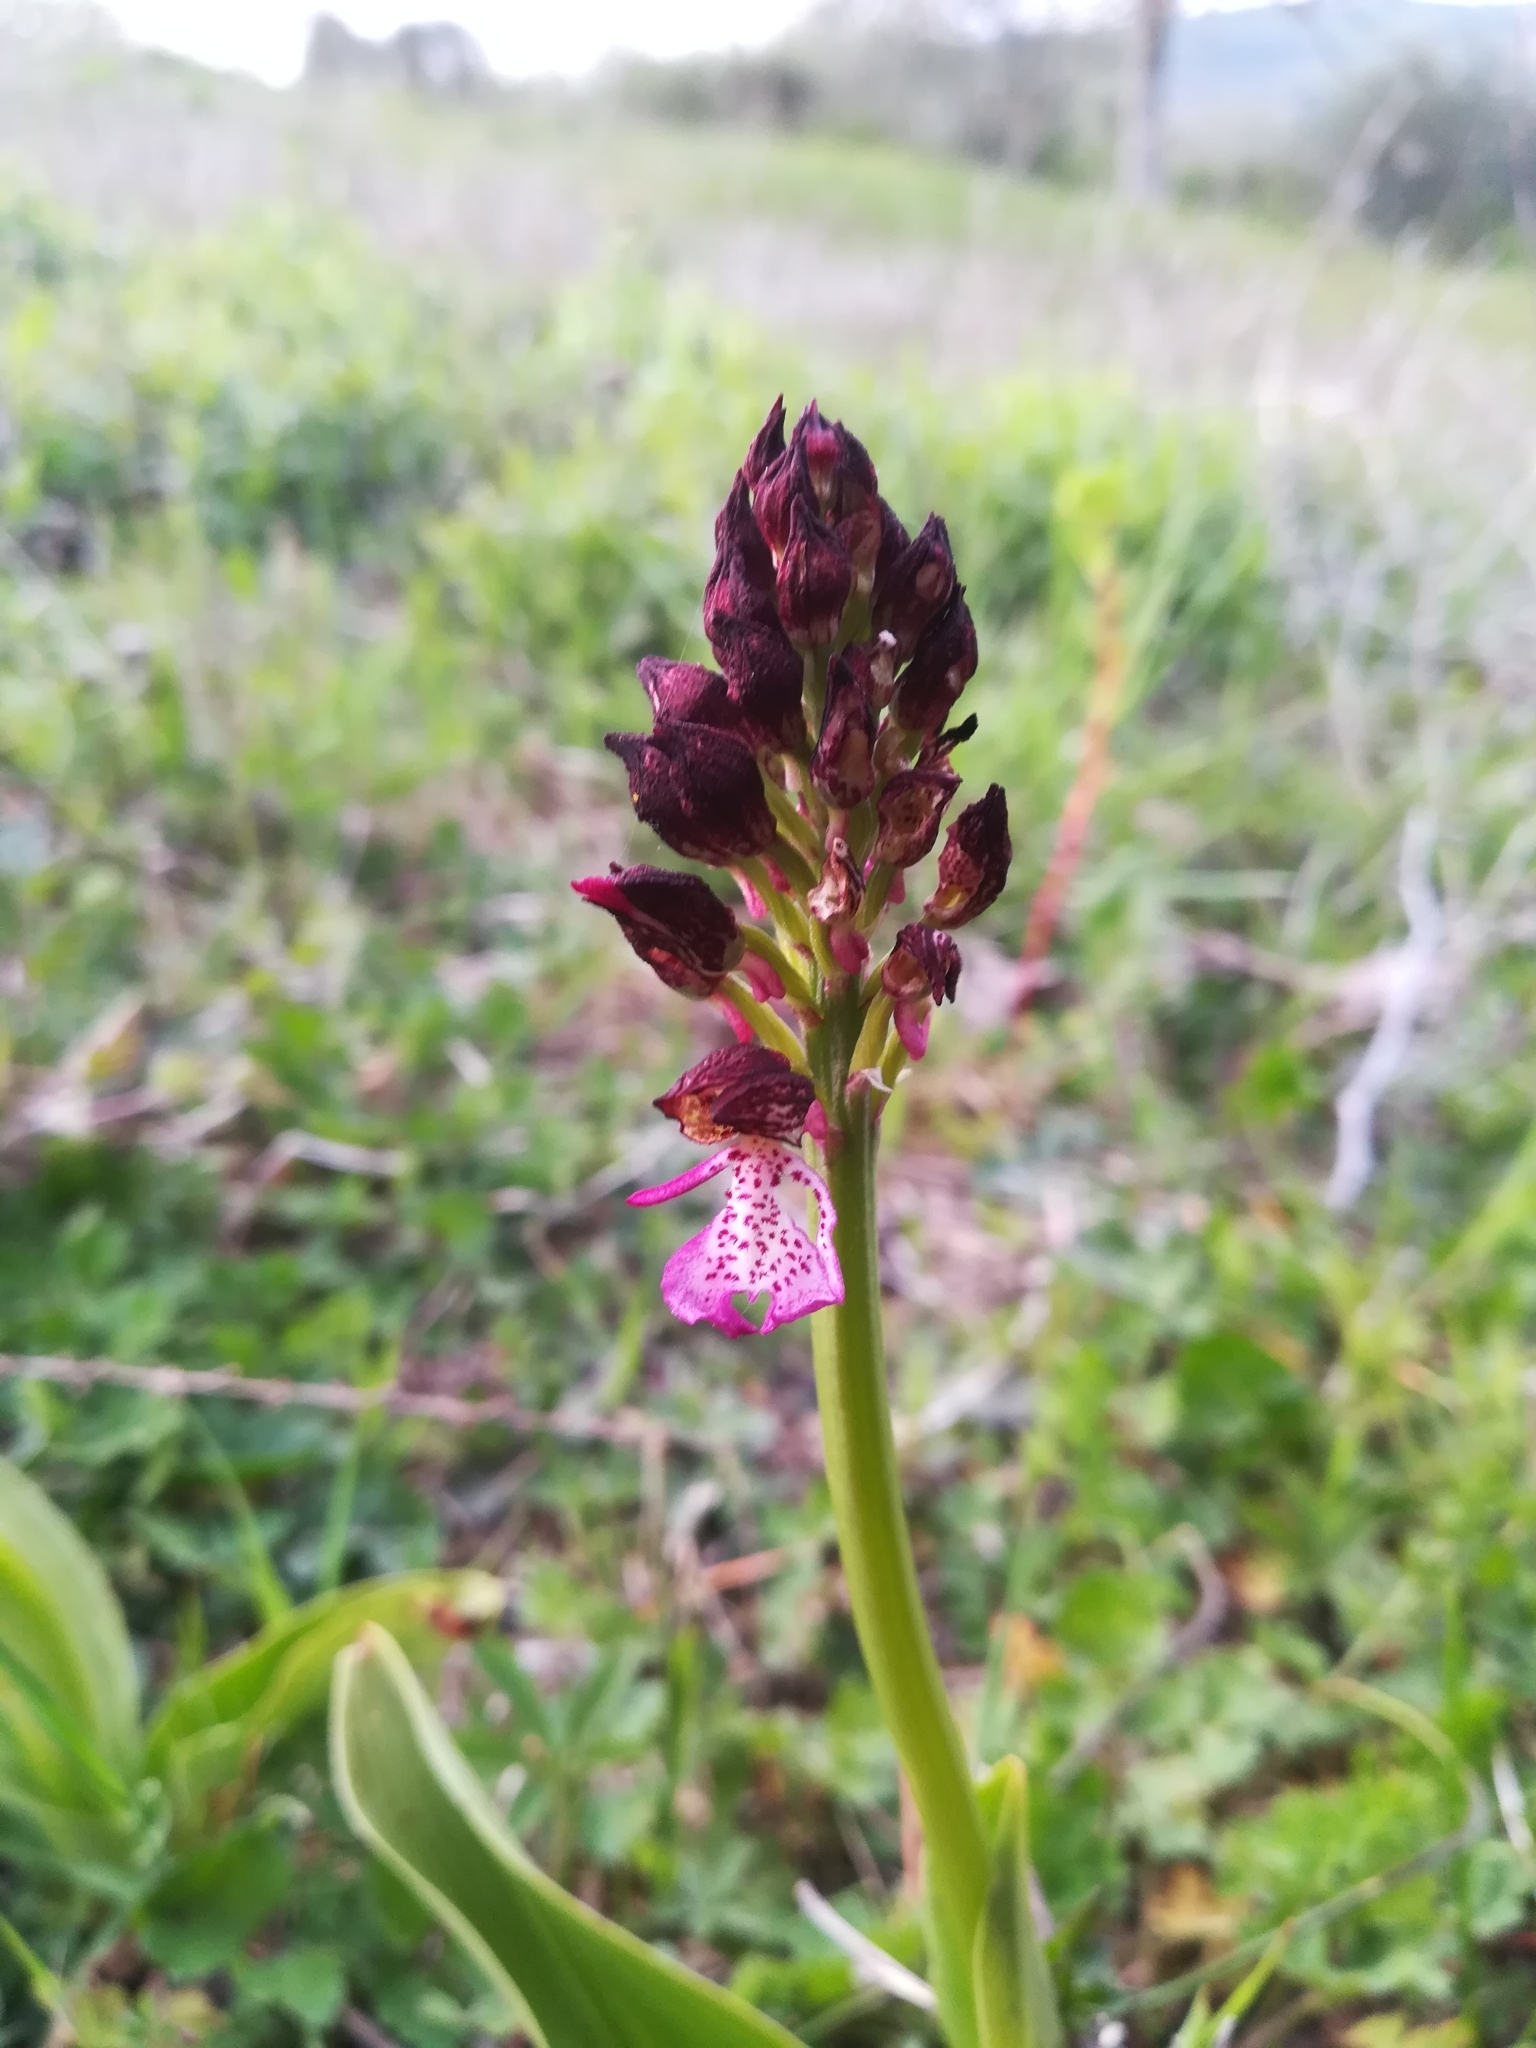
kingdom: Plantae
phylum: Tracheophyta
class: Liliopsida
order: Asparagales
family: Orchidaceae
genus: Orchis
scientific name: Orchis purpurea
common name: Lady orchid
